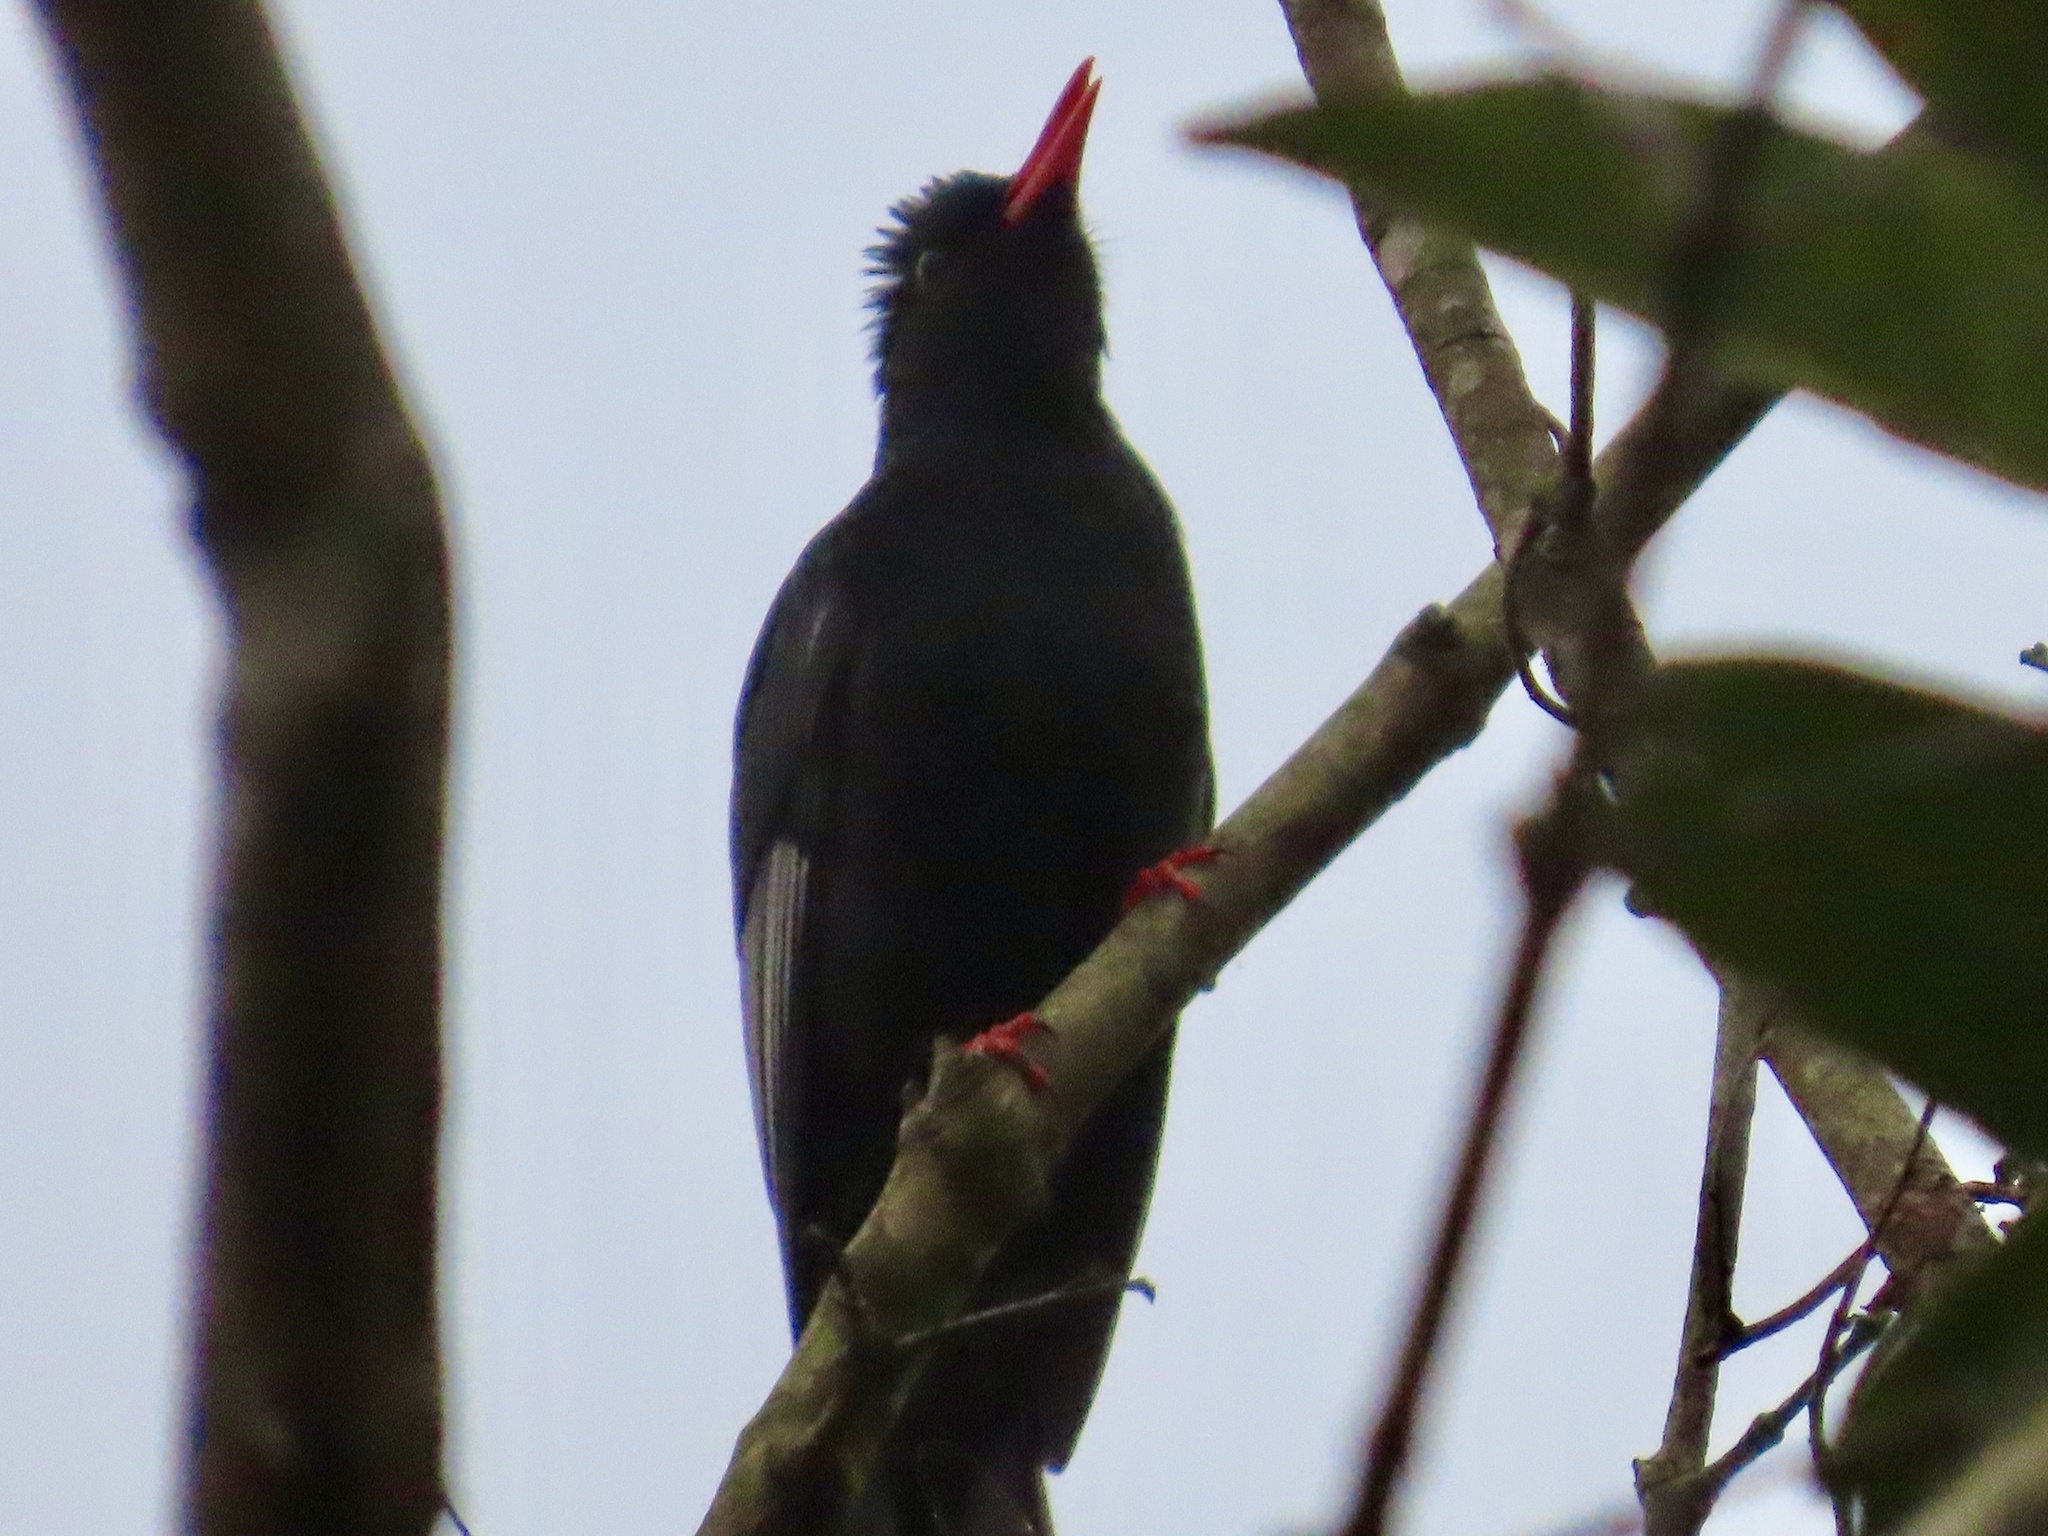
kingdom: Animalia
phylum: Chordata
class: Aves
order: Passeriformes
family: Pycnonotidae
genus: Hypsipetes
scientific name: Hypsipetes leucocephalus
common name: Black bulbul
